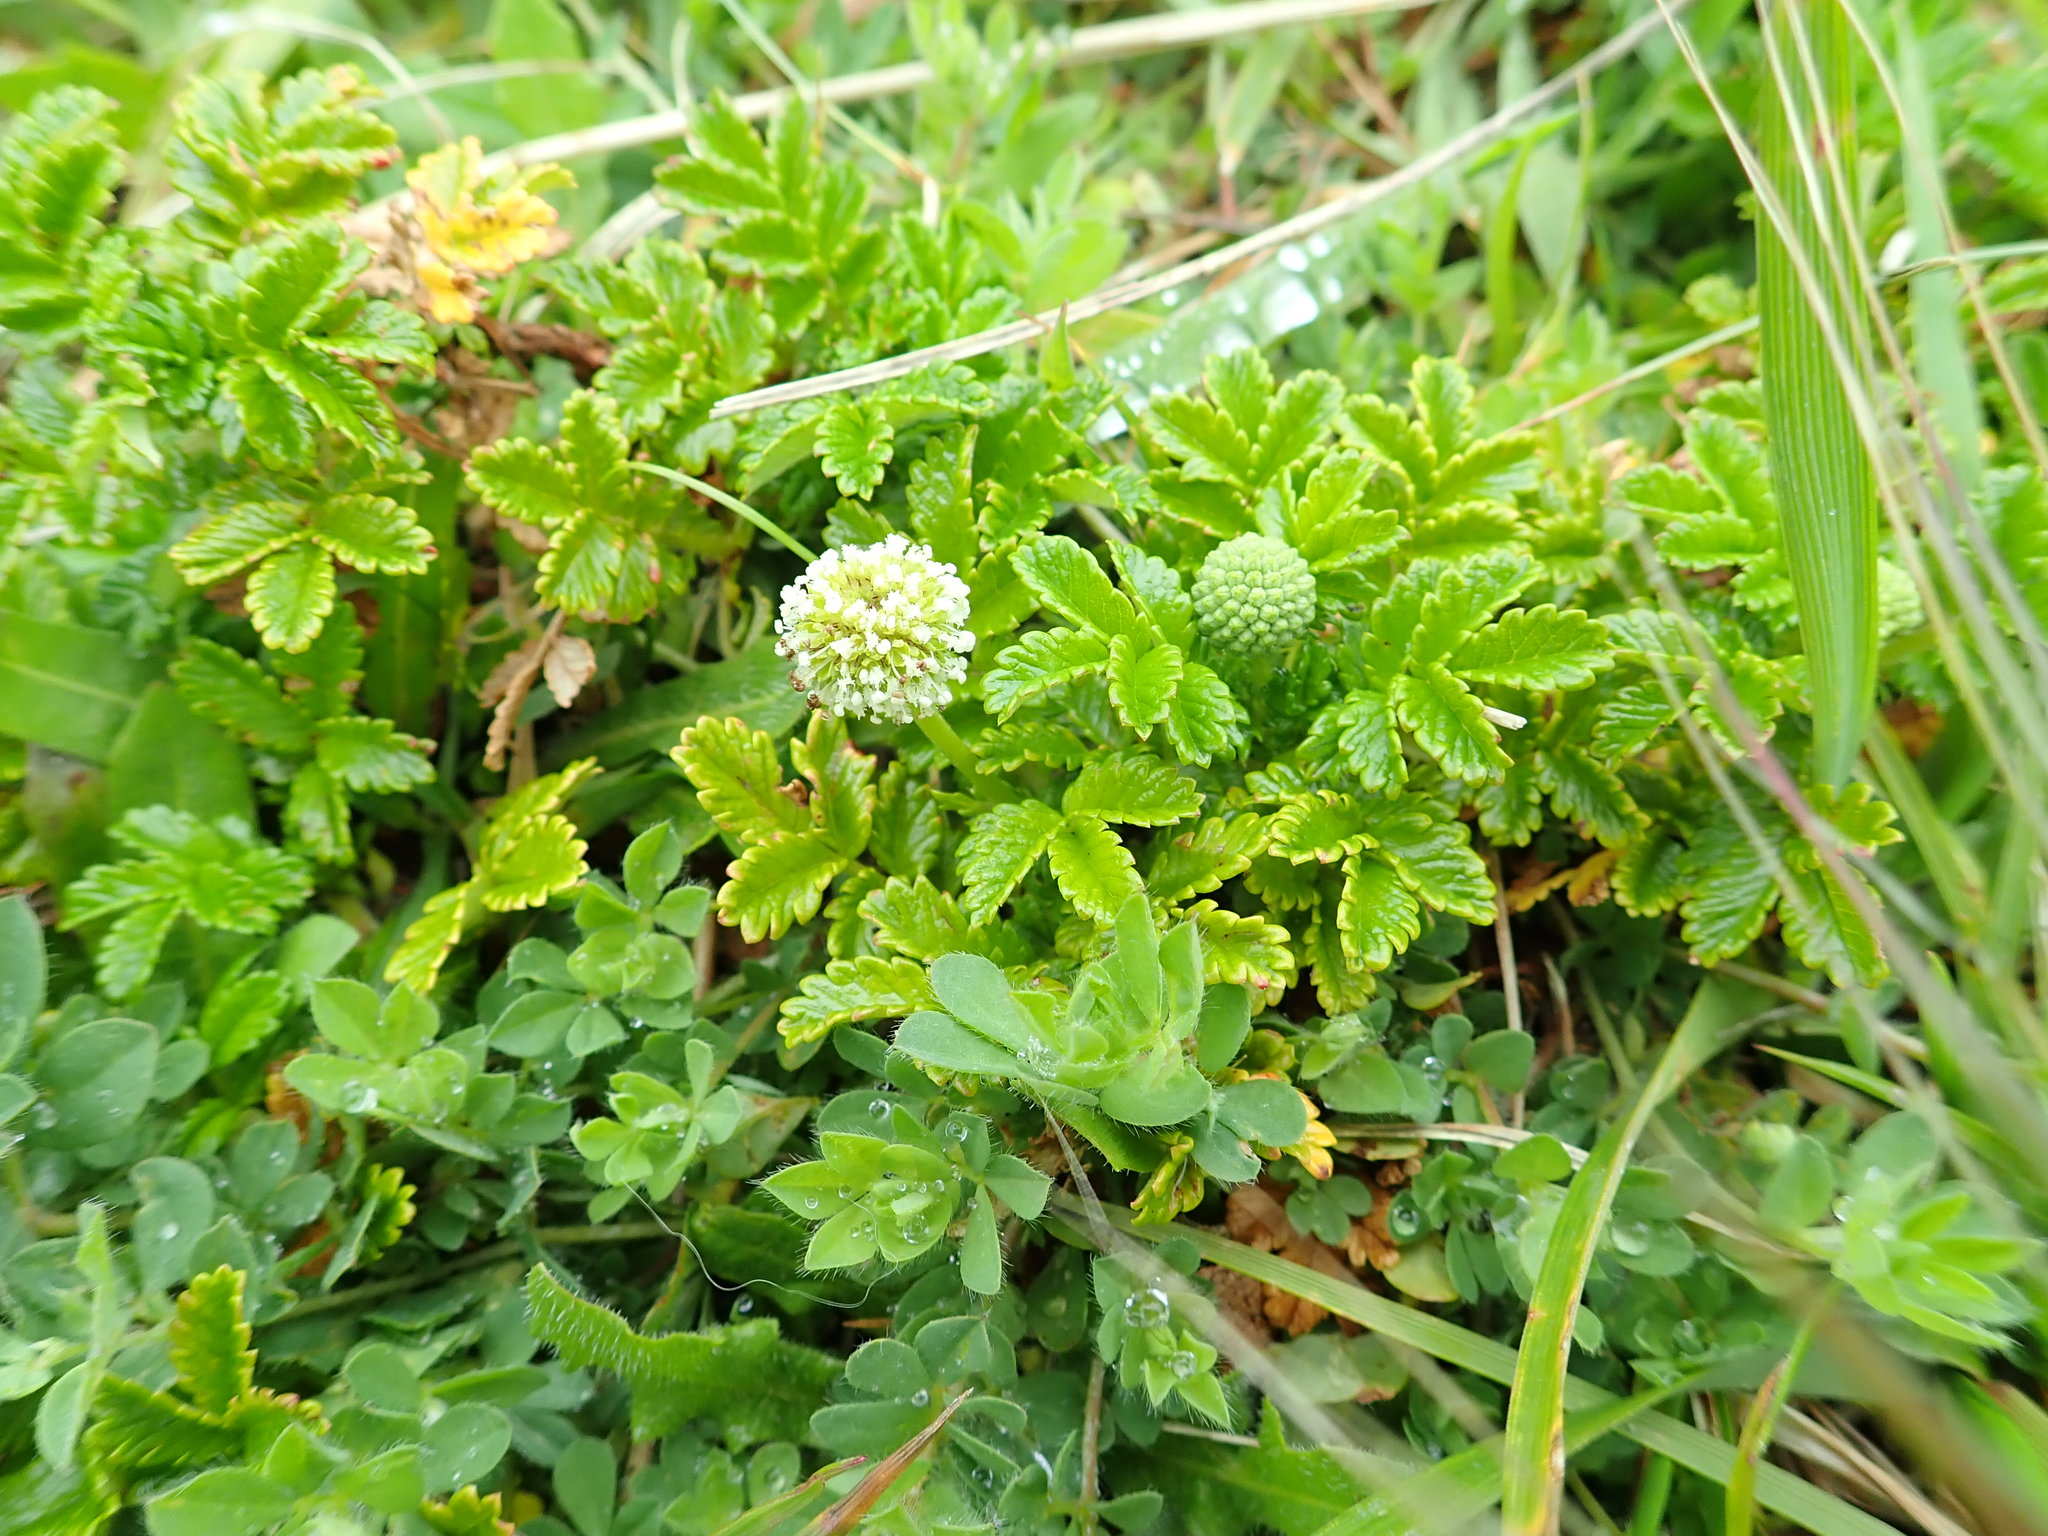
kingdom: Plantae
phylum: Tracheophyta
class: Magnoliopsida
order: Rosales
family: Rosaceae
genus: Acaena
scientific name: Acaena pallida
